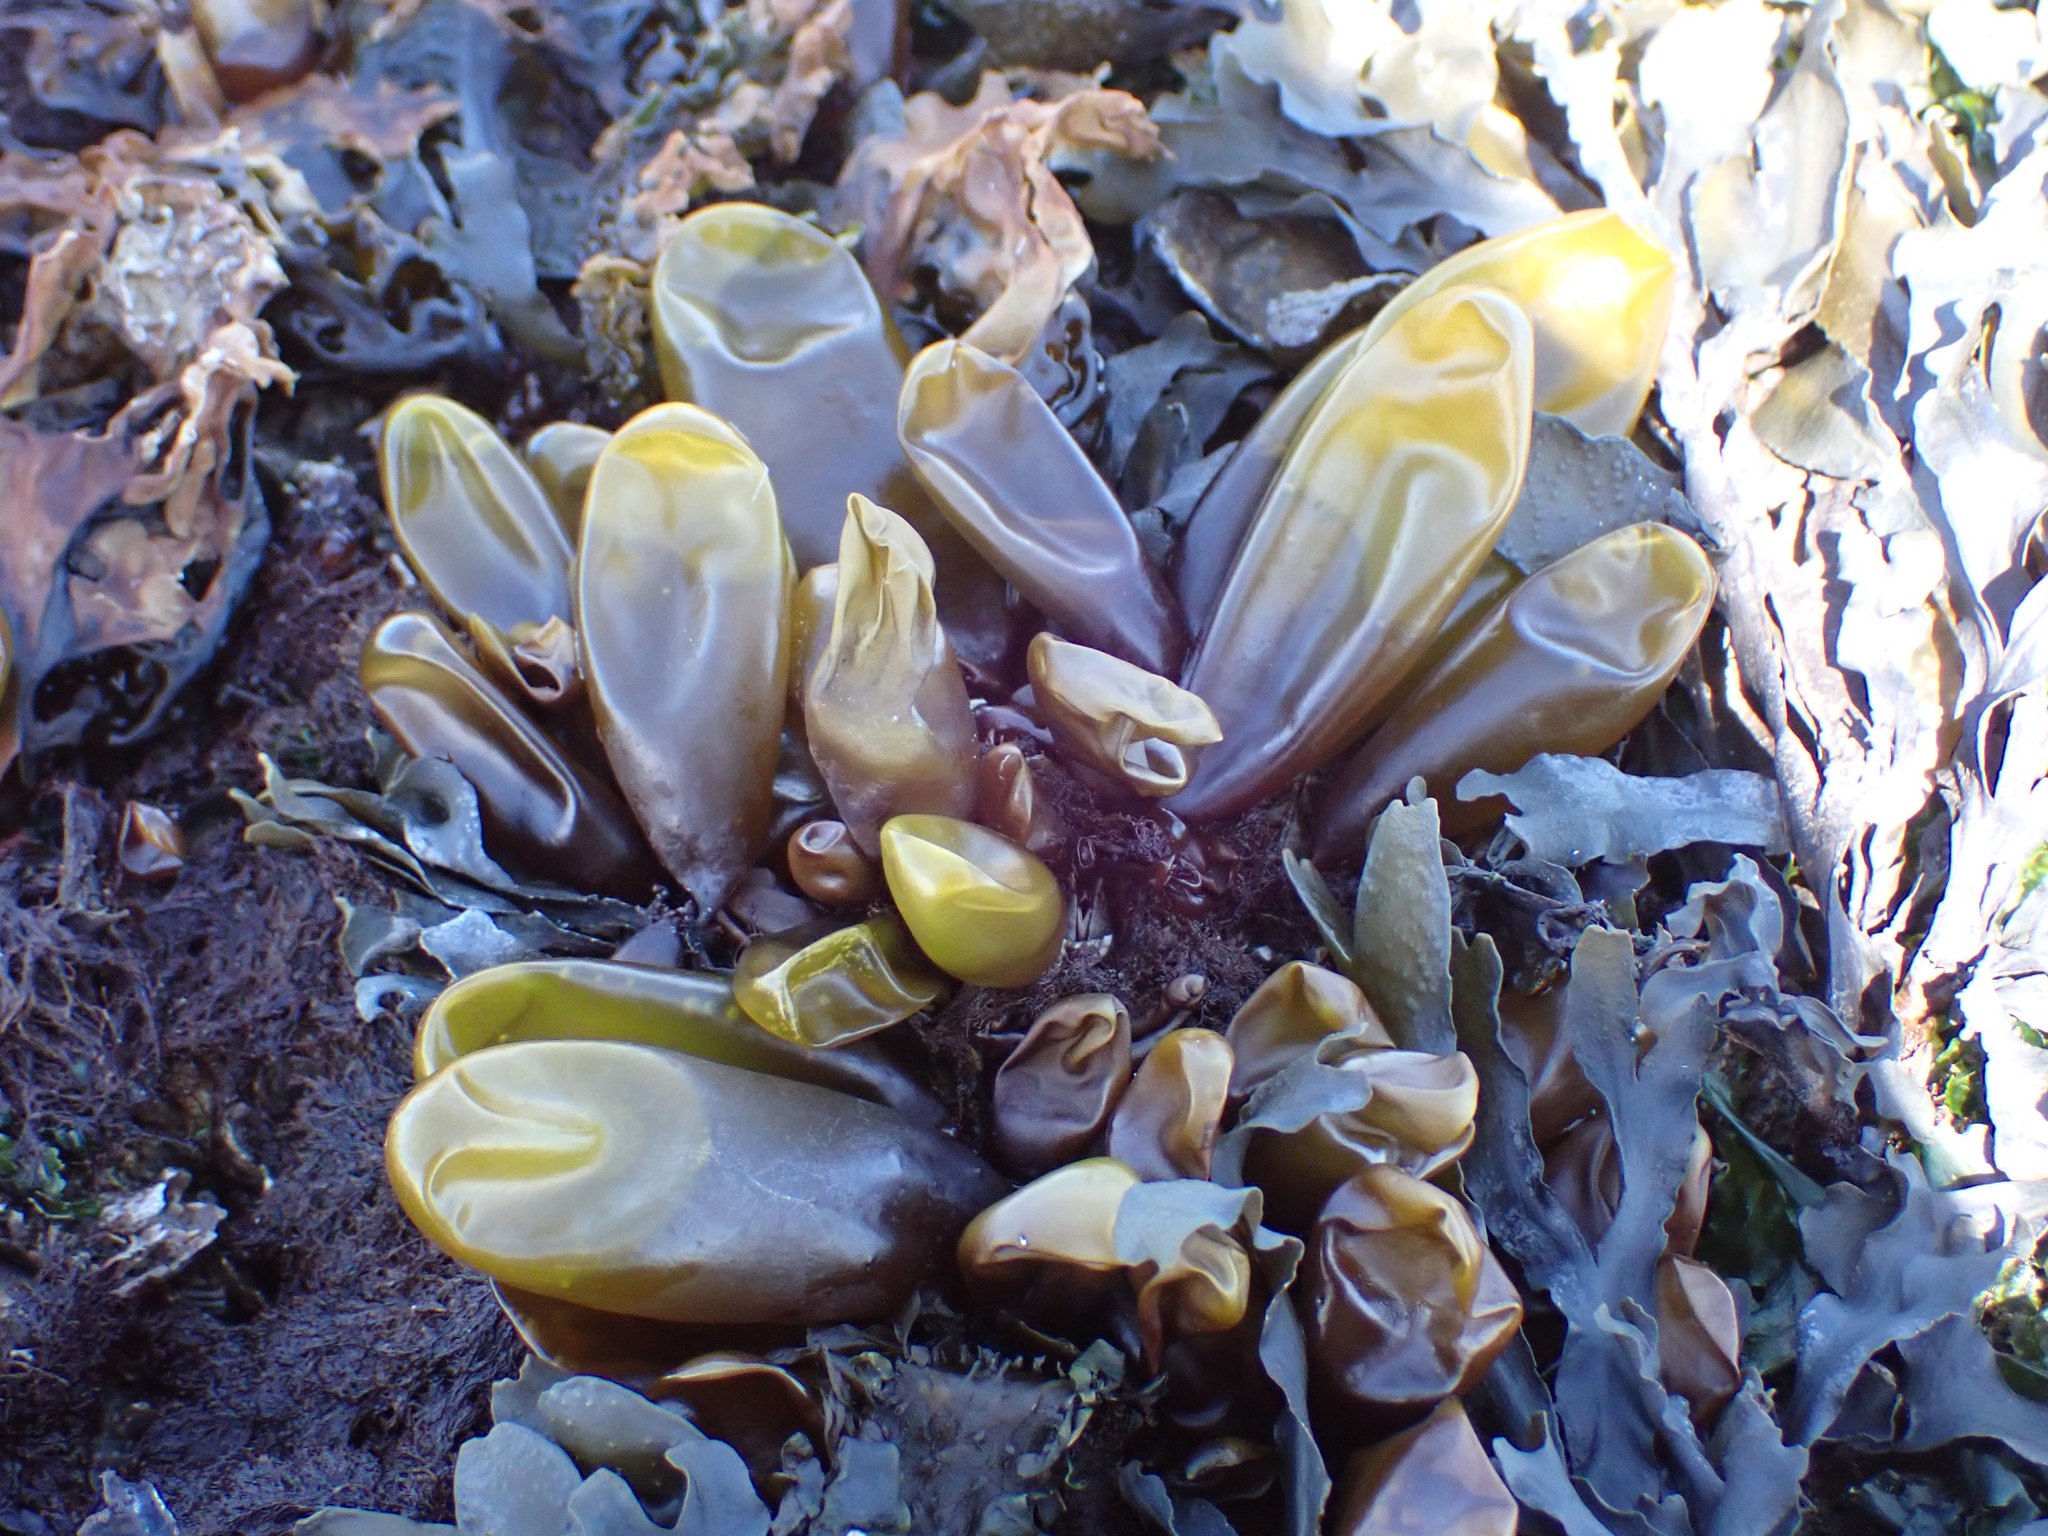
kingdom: Plantae
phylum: Rhodophyta
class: Florideophyceae
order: Palmariales
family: Palmariaceae
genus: Halosaccion
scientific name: Halosaccion glandiforme
